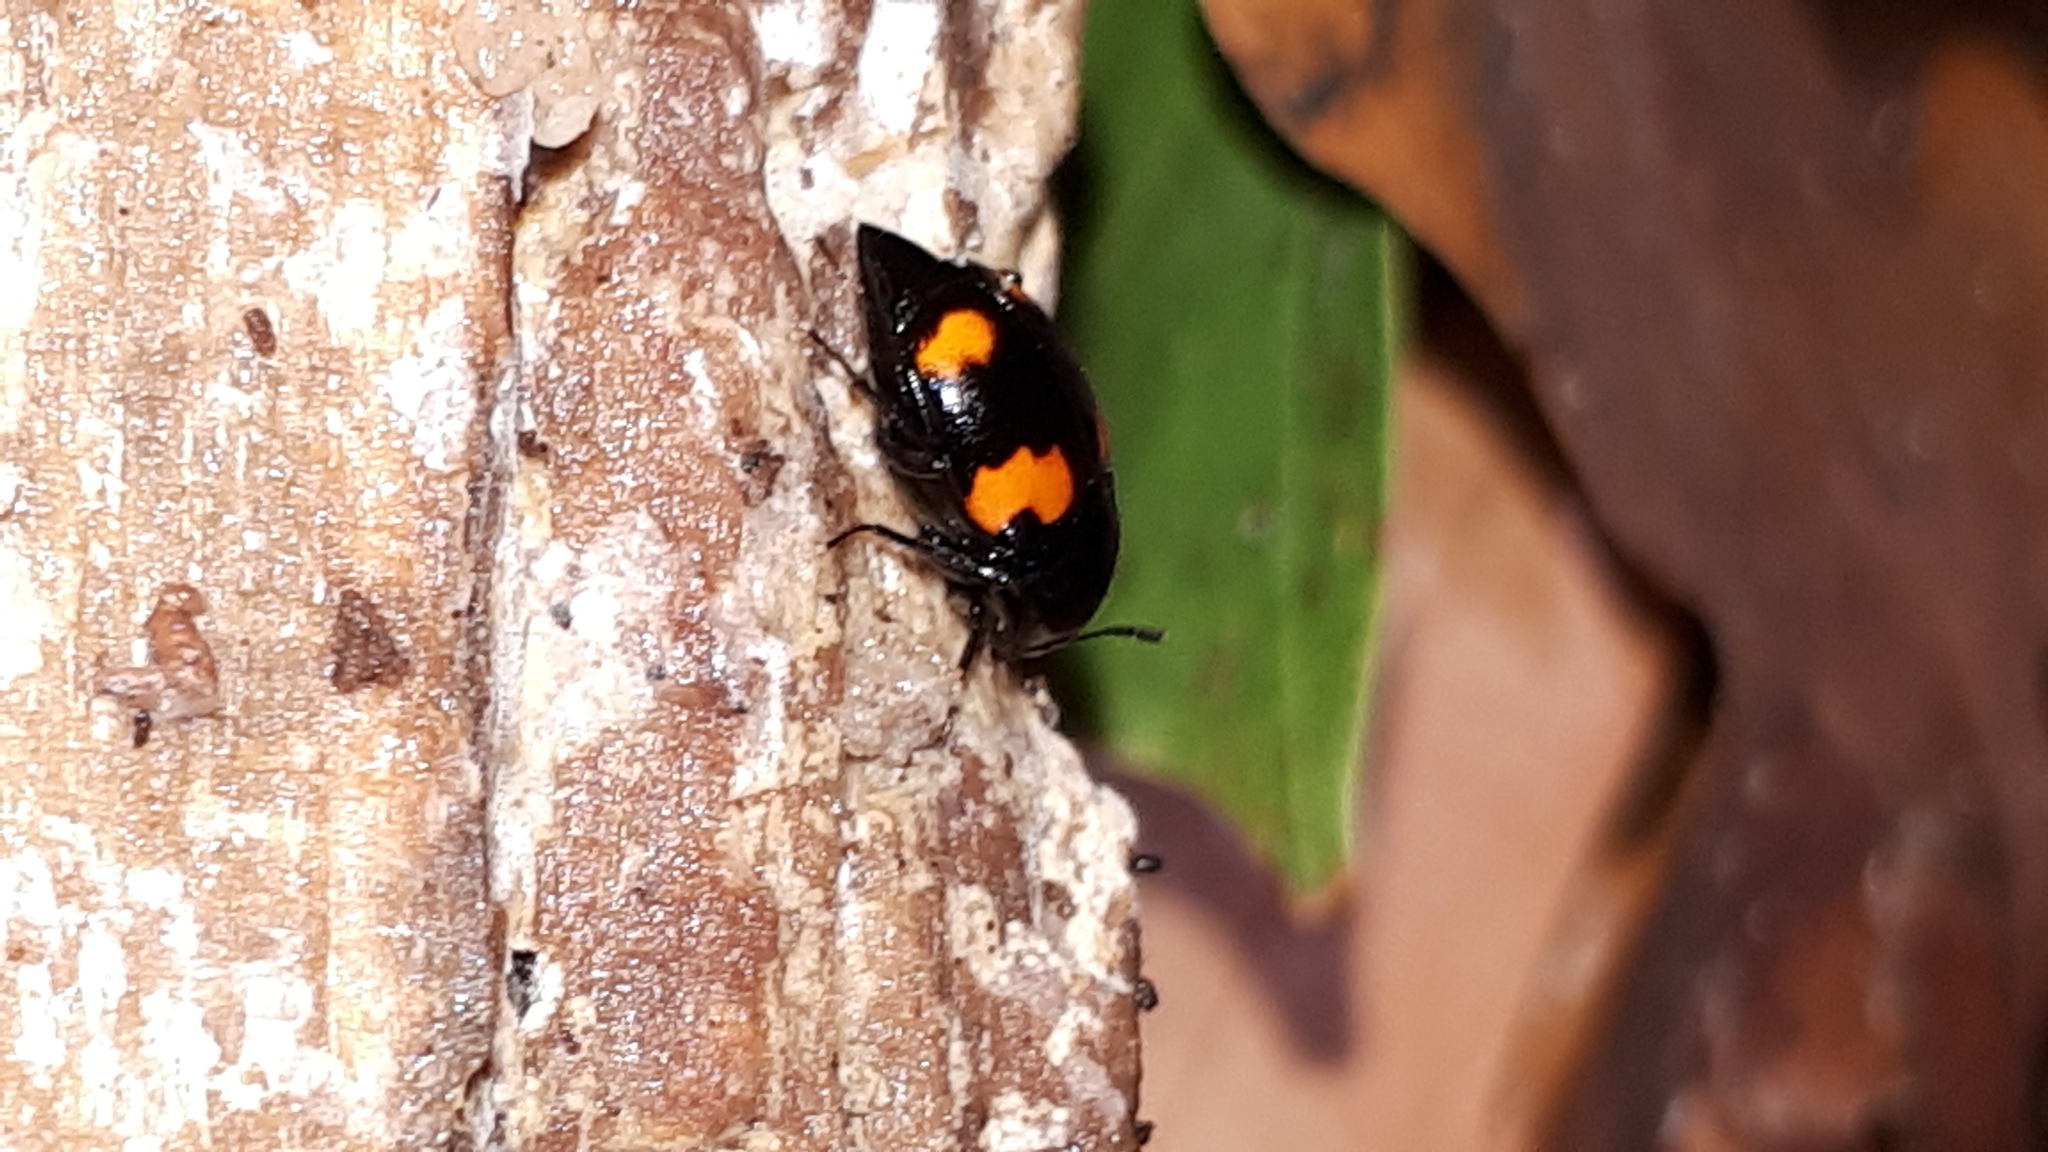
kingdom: Animalia
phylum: Arthropoda
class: Insecta
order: Coleoptera
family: Staphylinidae
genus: Scaphidium
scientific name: Scaphidium quadrimaculatum
